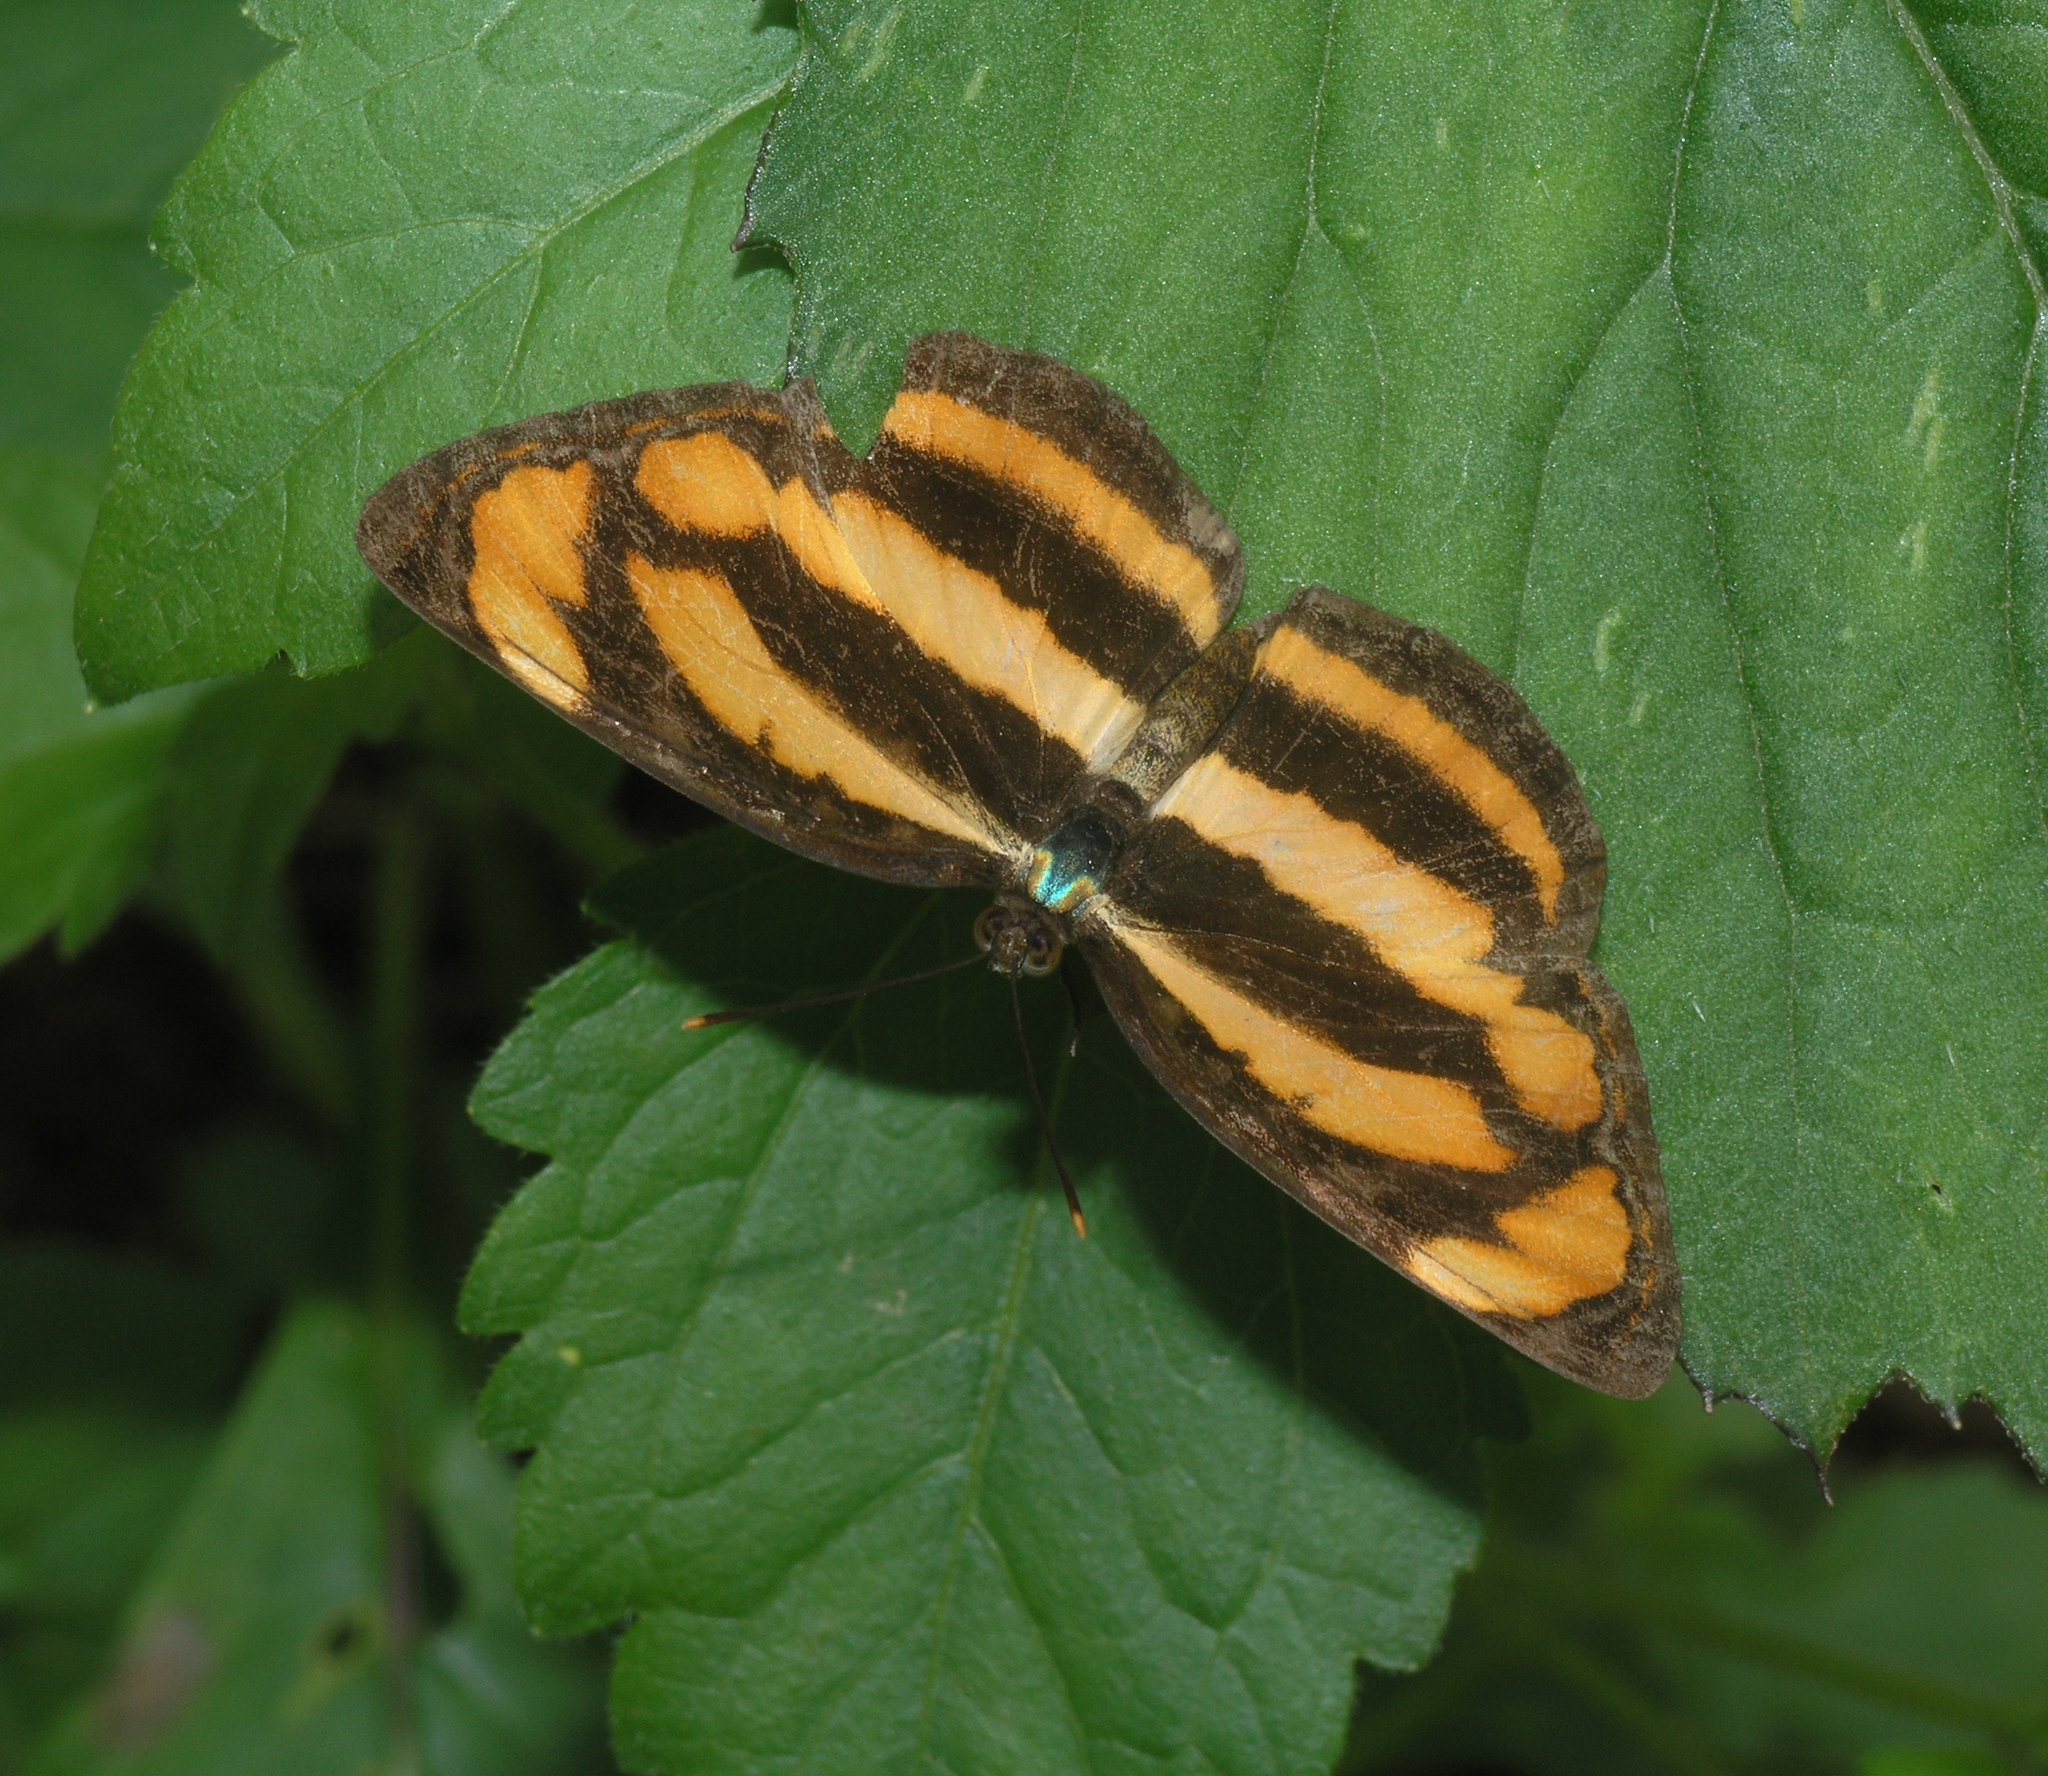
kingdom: Animalia
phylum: Arthropoda
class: Insecta
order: Lepidoptera
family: Nymphalidae
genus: Pantoporia
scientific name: Pantoporia hordonia
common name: Common lascar
